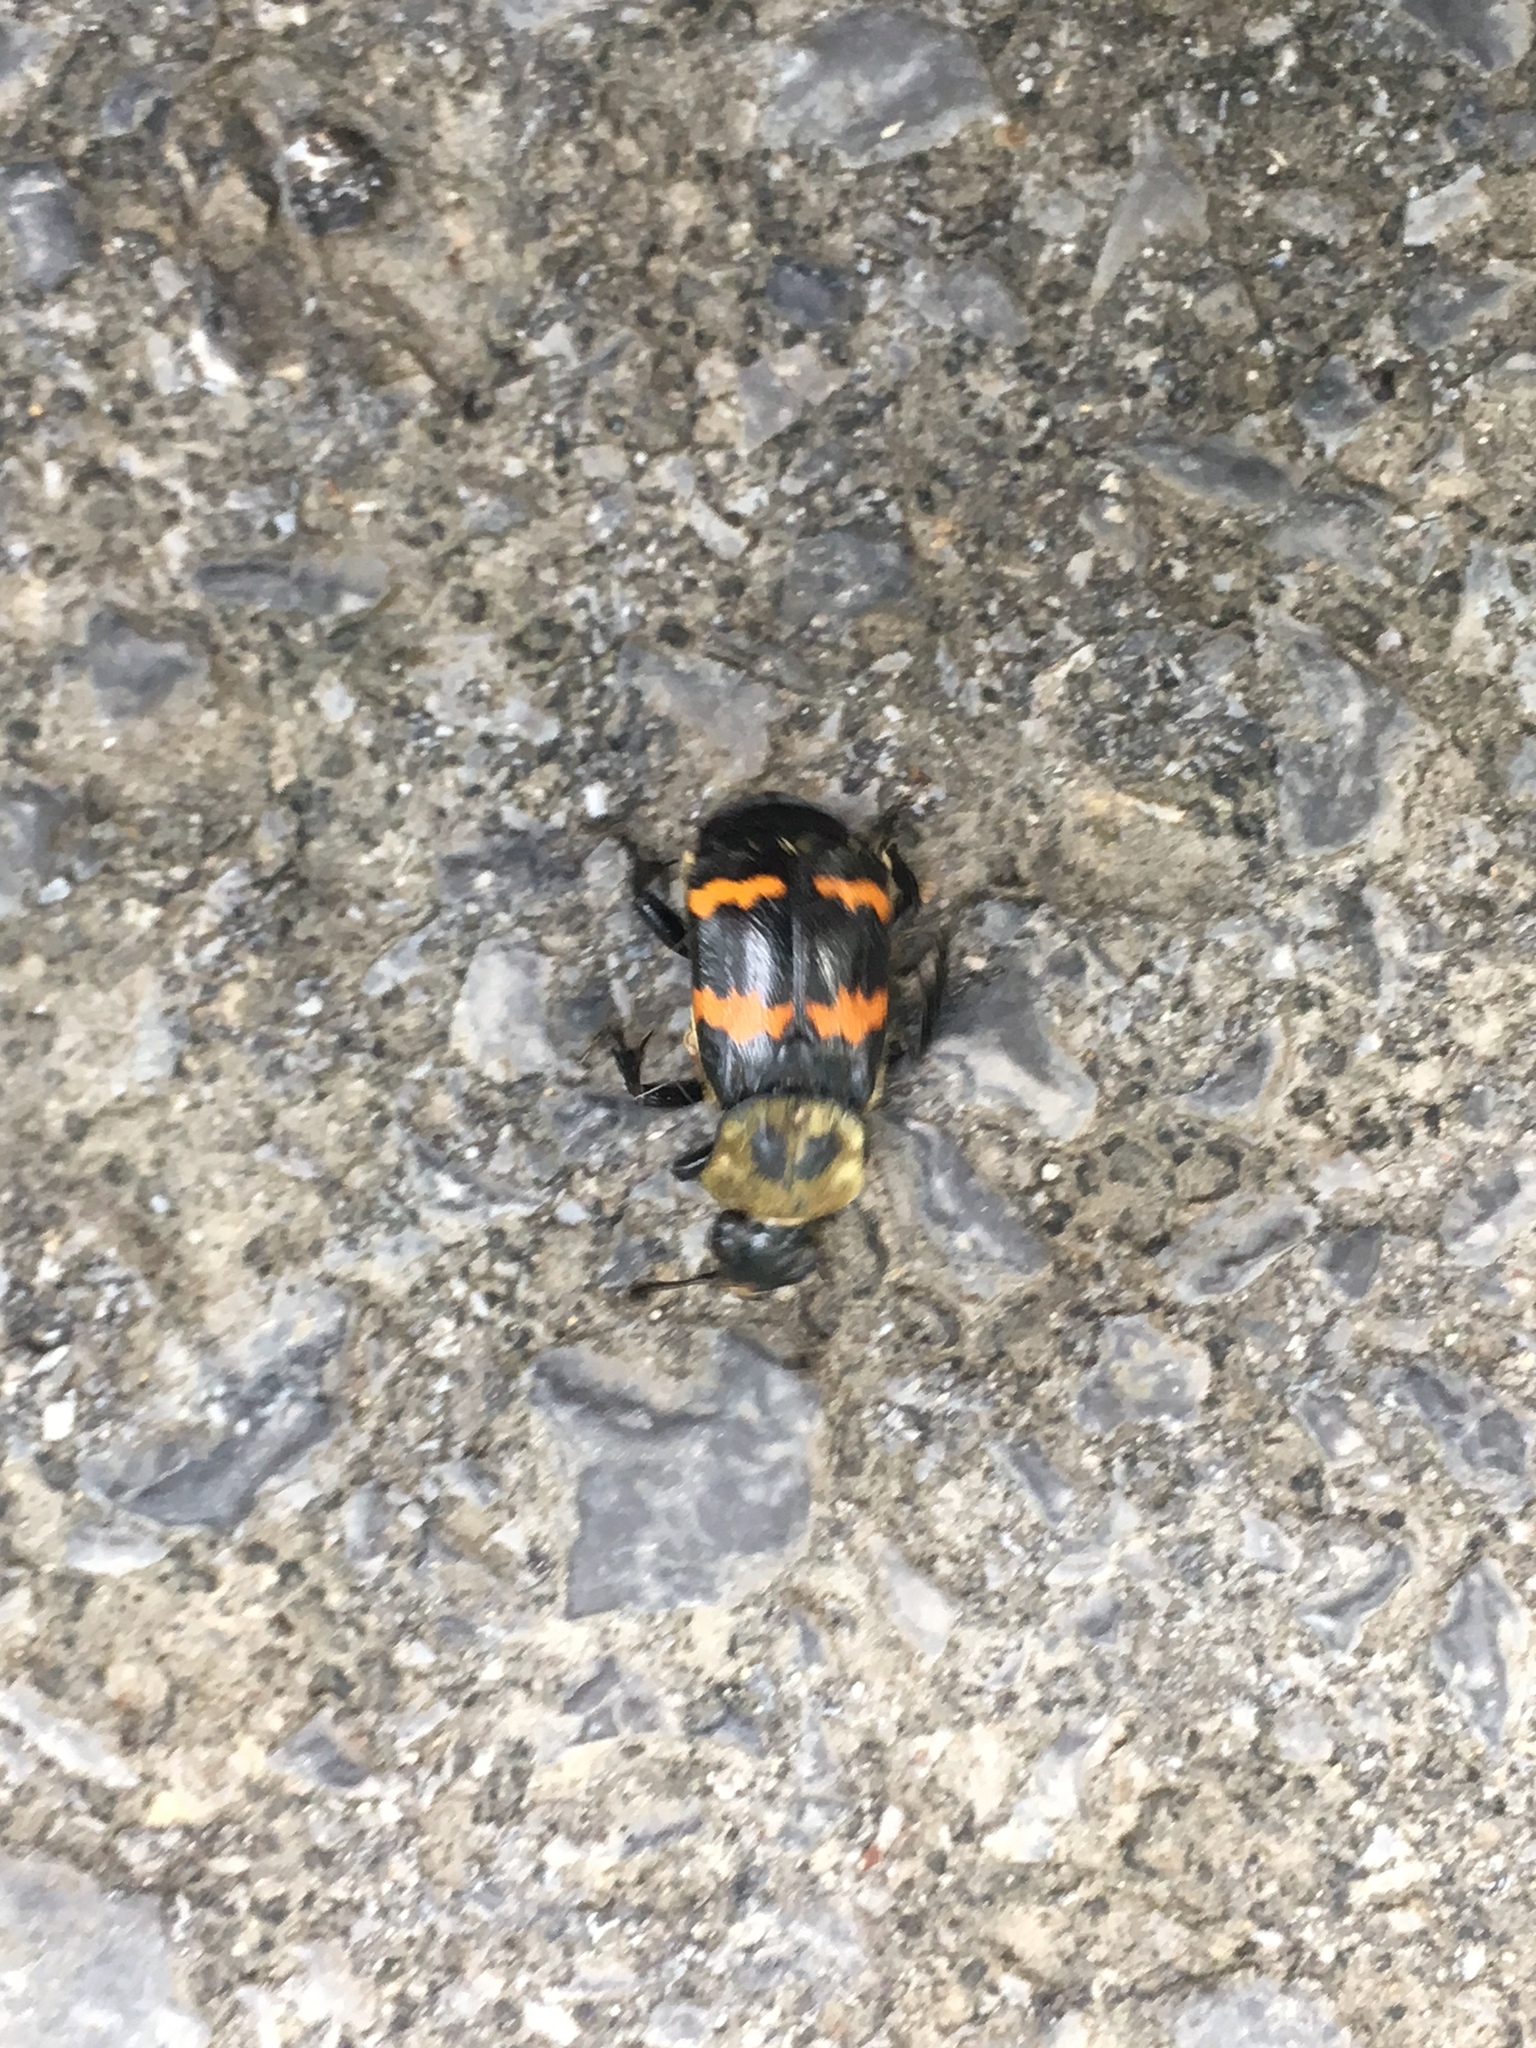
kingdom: Animalia
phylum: Arthropoda
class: Insecta
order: Coleoptera
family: Staphylinidae
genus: Nicrophorus
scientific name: Nicrophorus tomentosus
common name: Tomentose burying beetle
